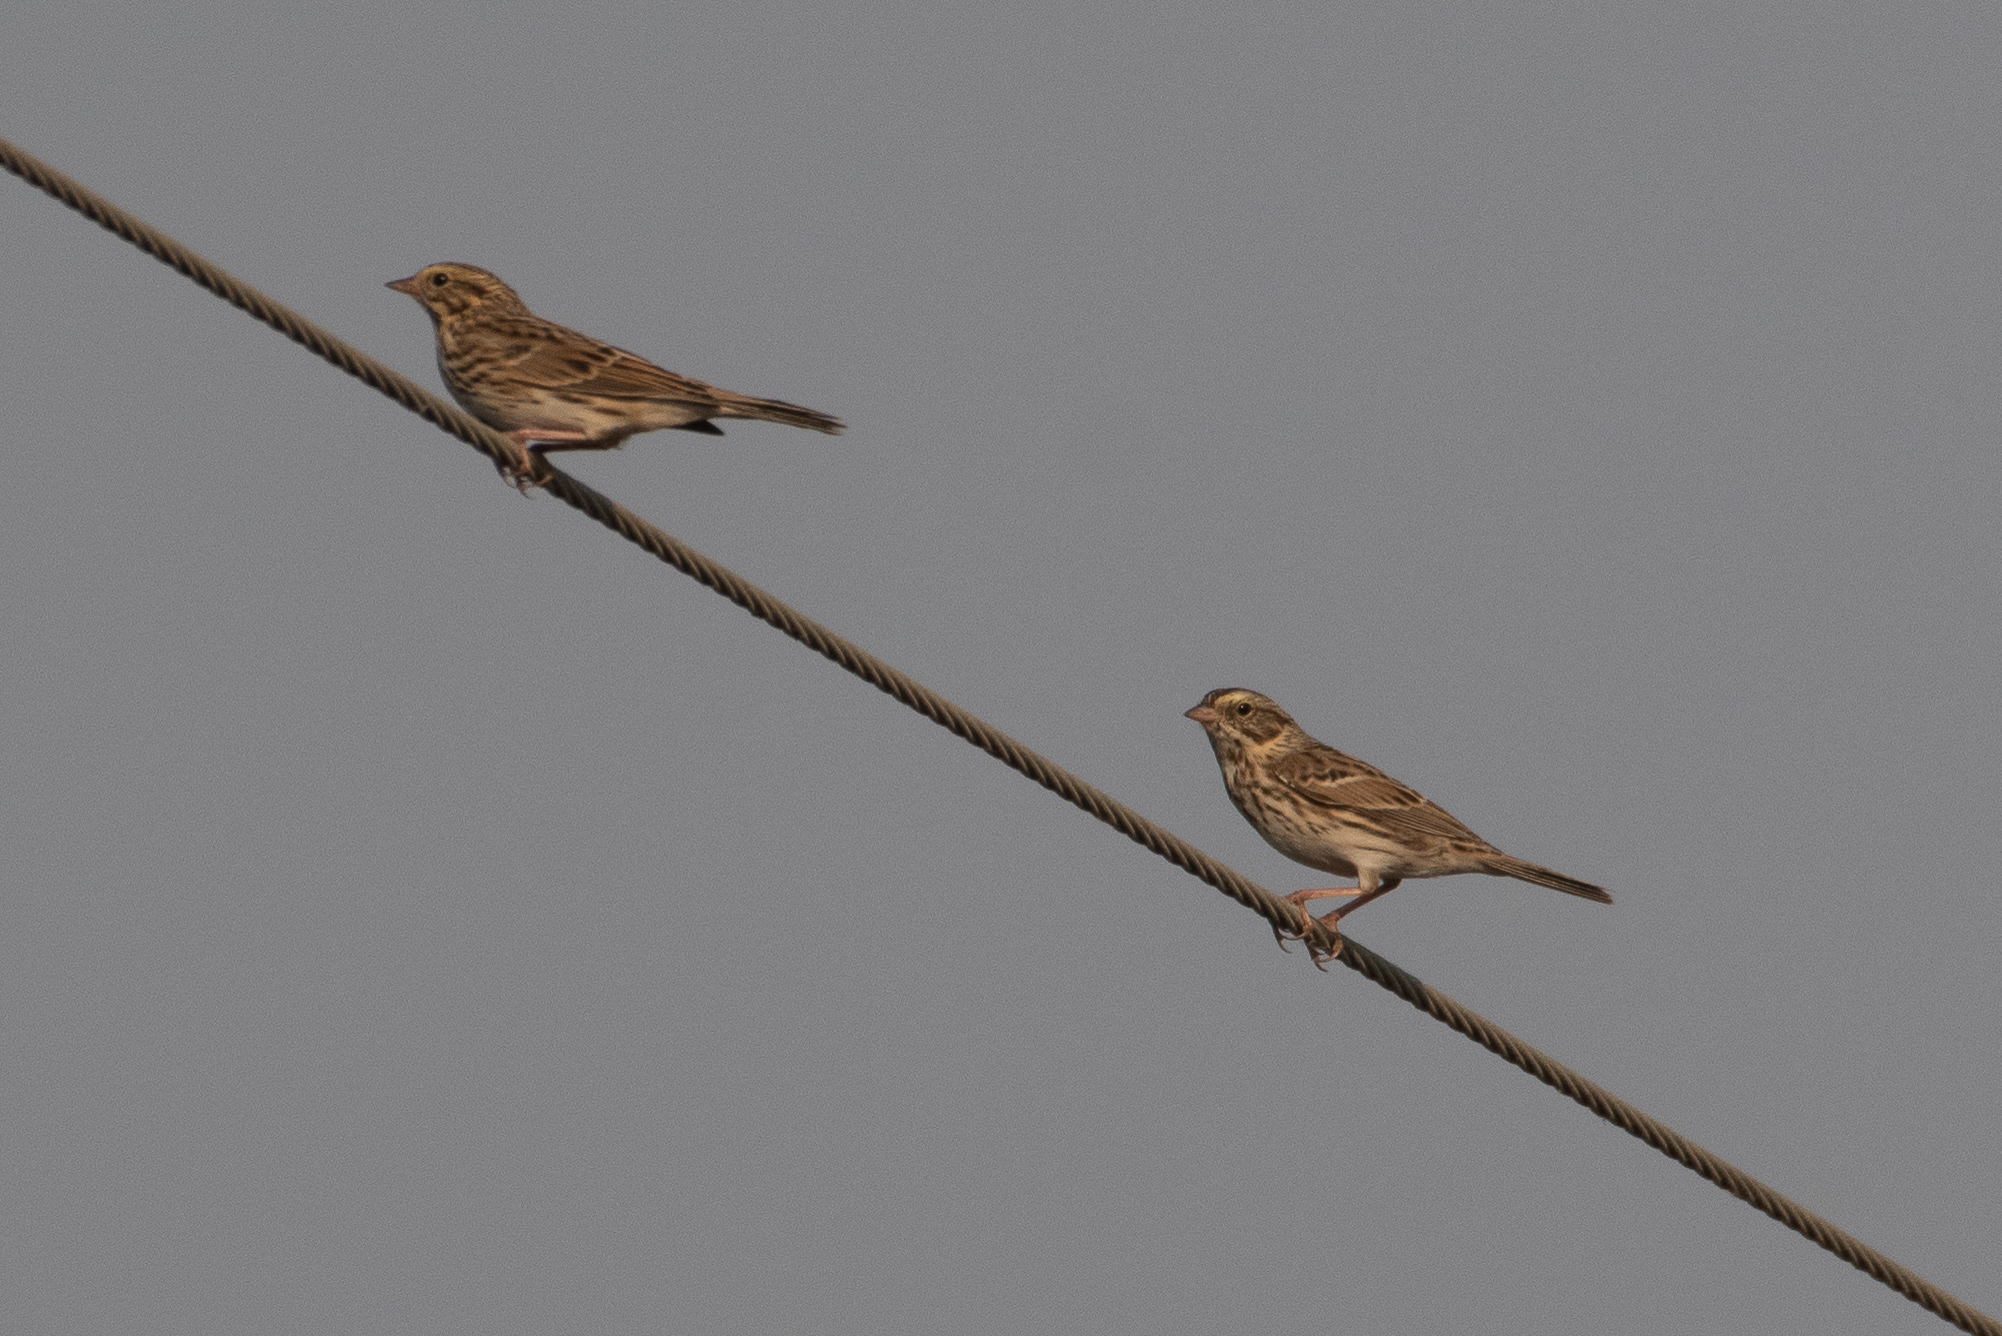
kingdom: Animalia
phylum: Chordata
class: Aves
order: Passeriformes
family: Passerellidae
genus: Passerculus
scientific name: Passerculus sandwichensis
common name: Savannah sparrow
